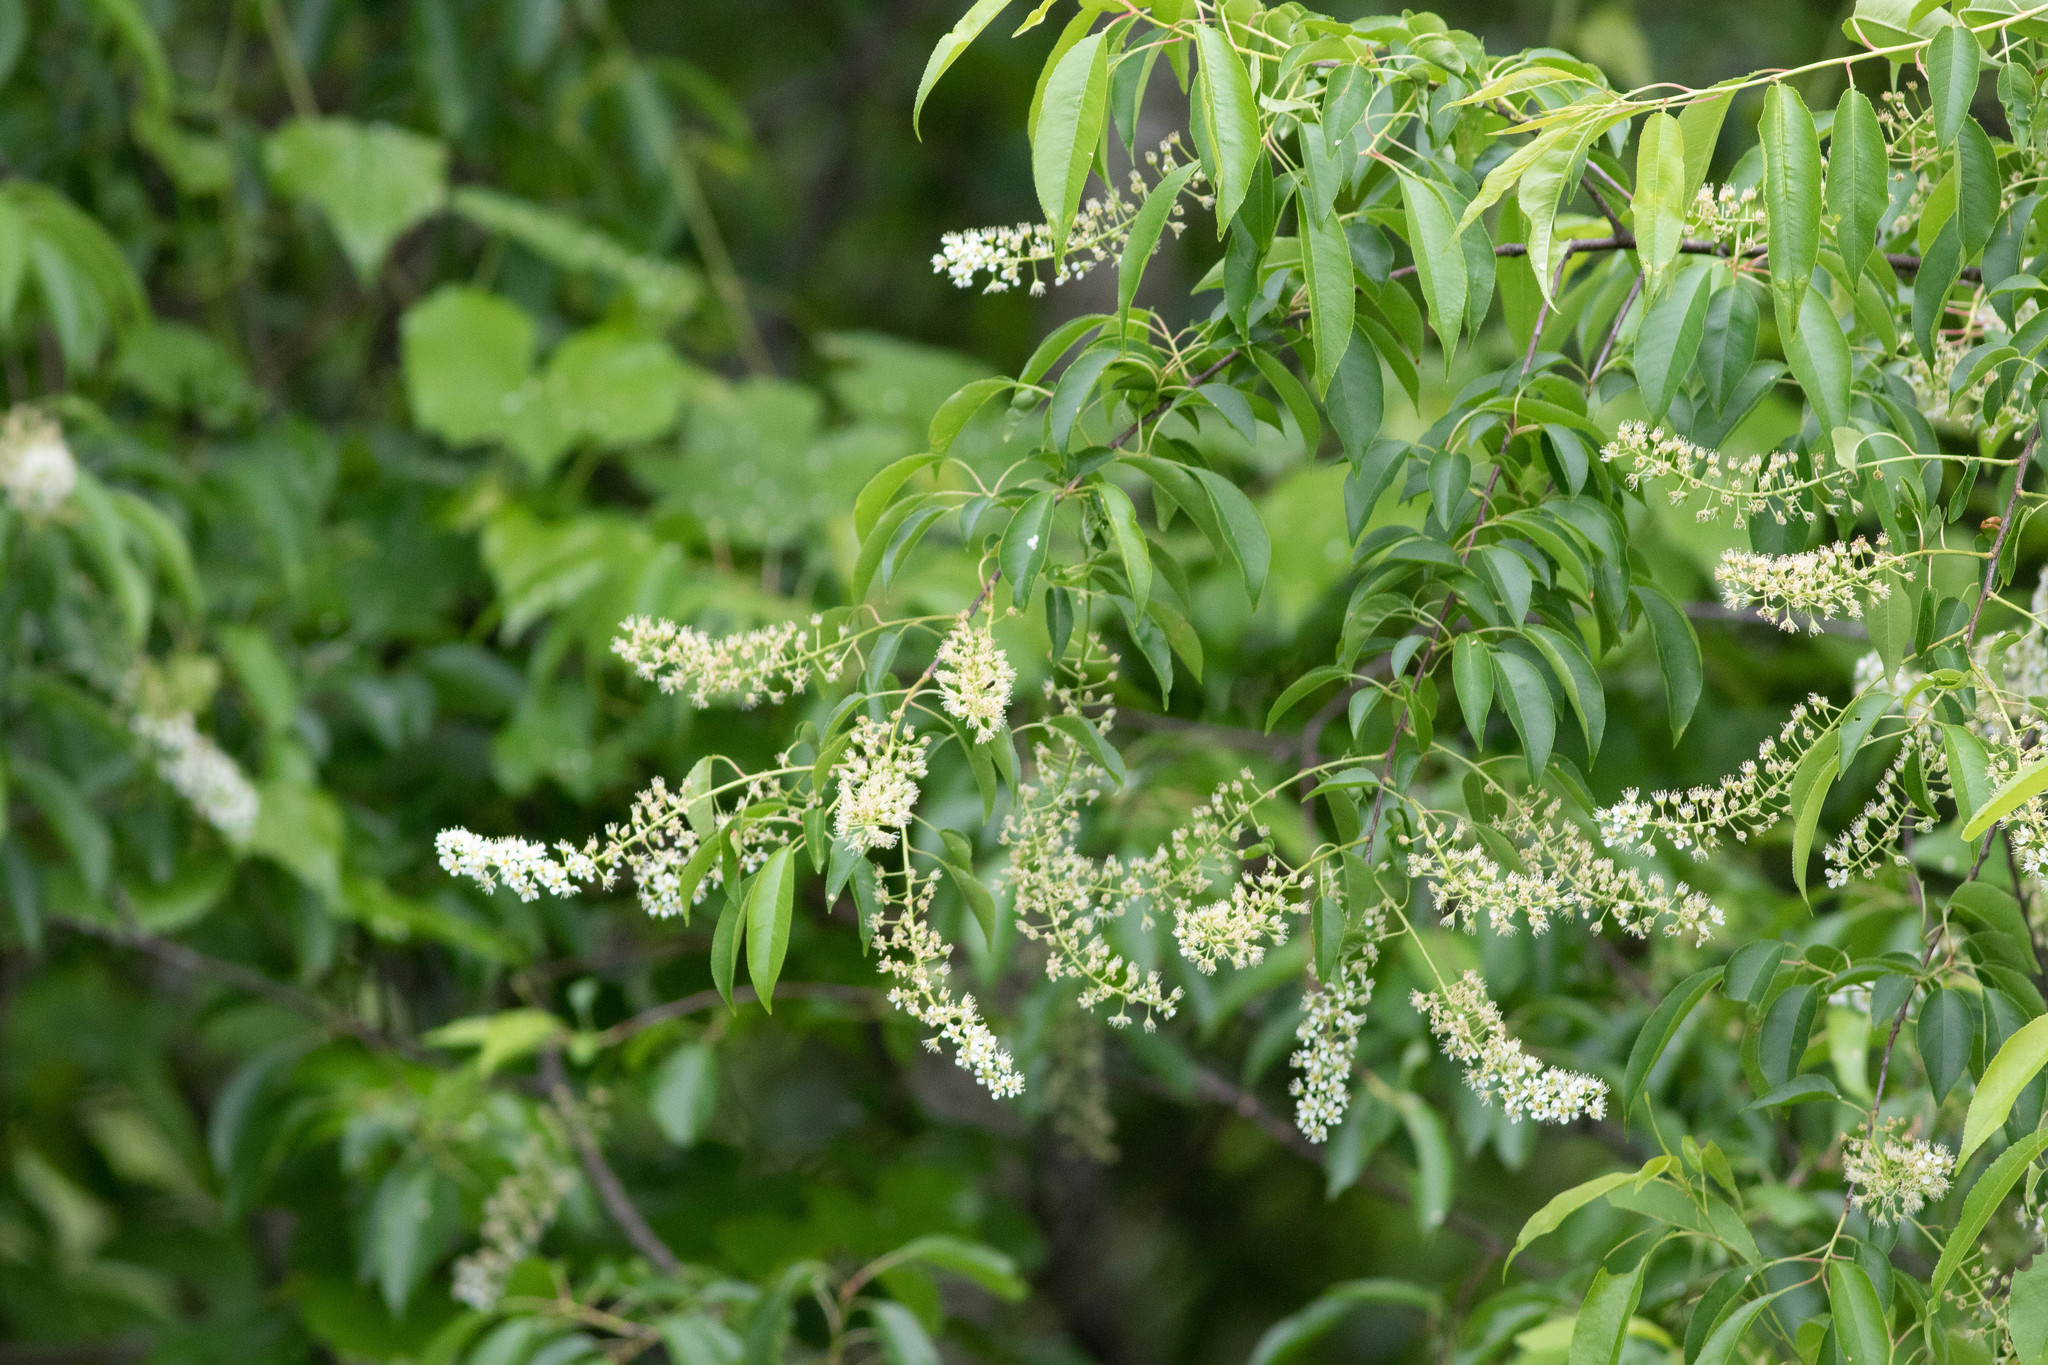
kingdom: Plantae
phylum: Tracheophyta
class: Magnoliopsida
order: Rosales
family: Rosaceae
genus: Prunus
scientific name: Prunus serotina
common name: Black cherry
